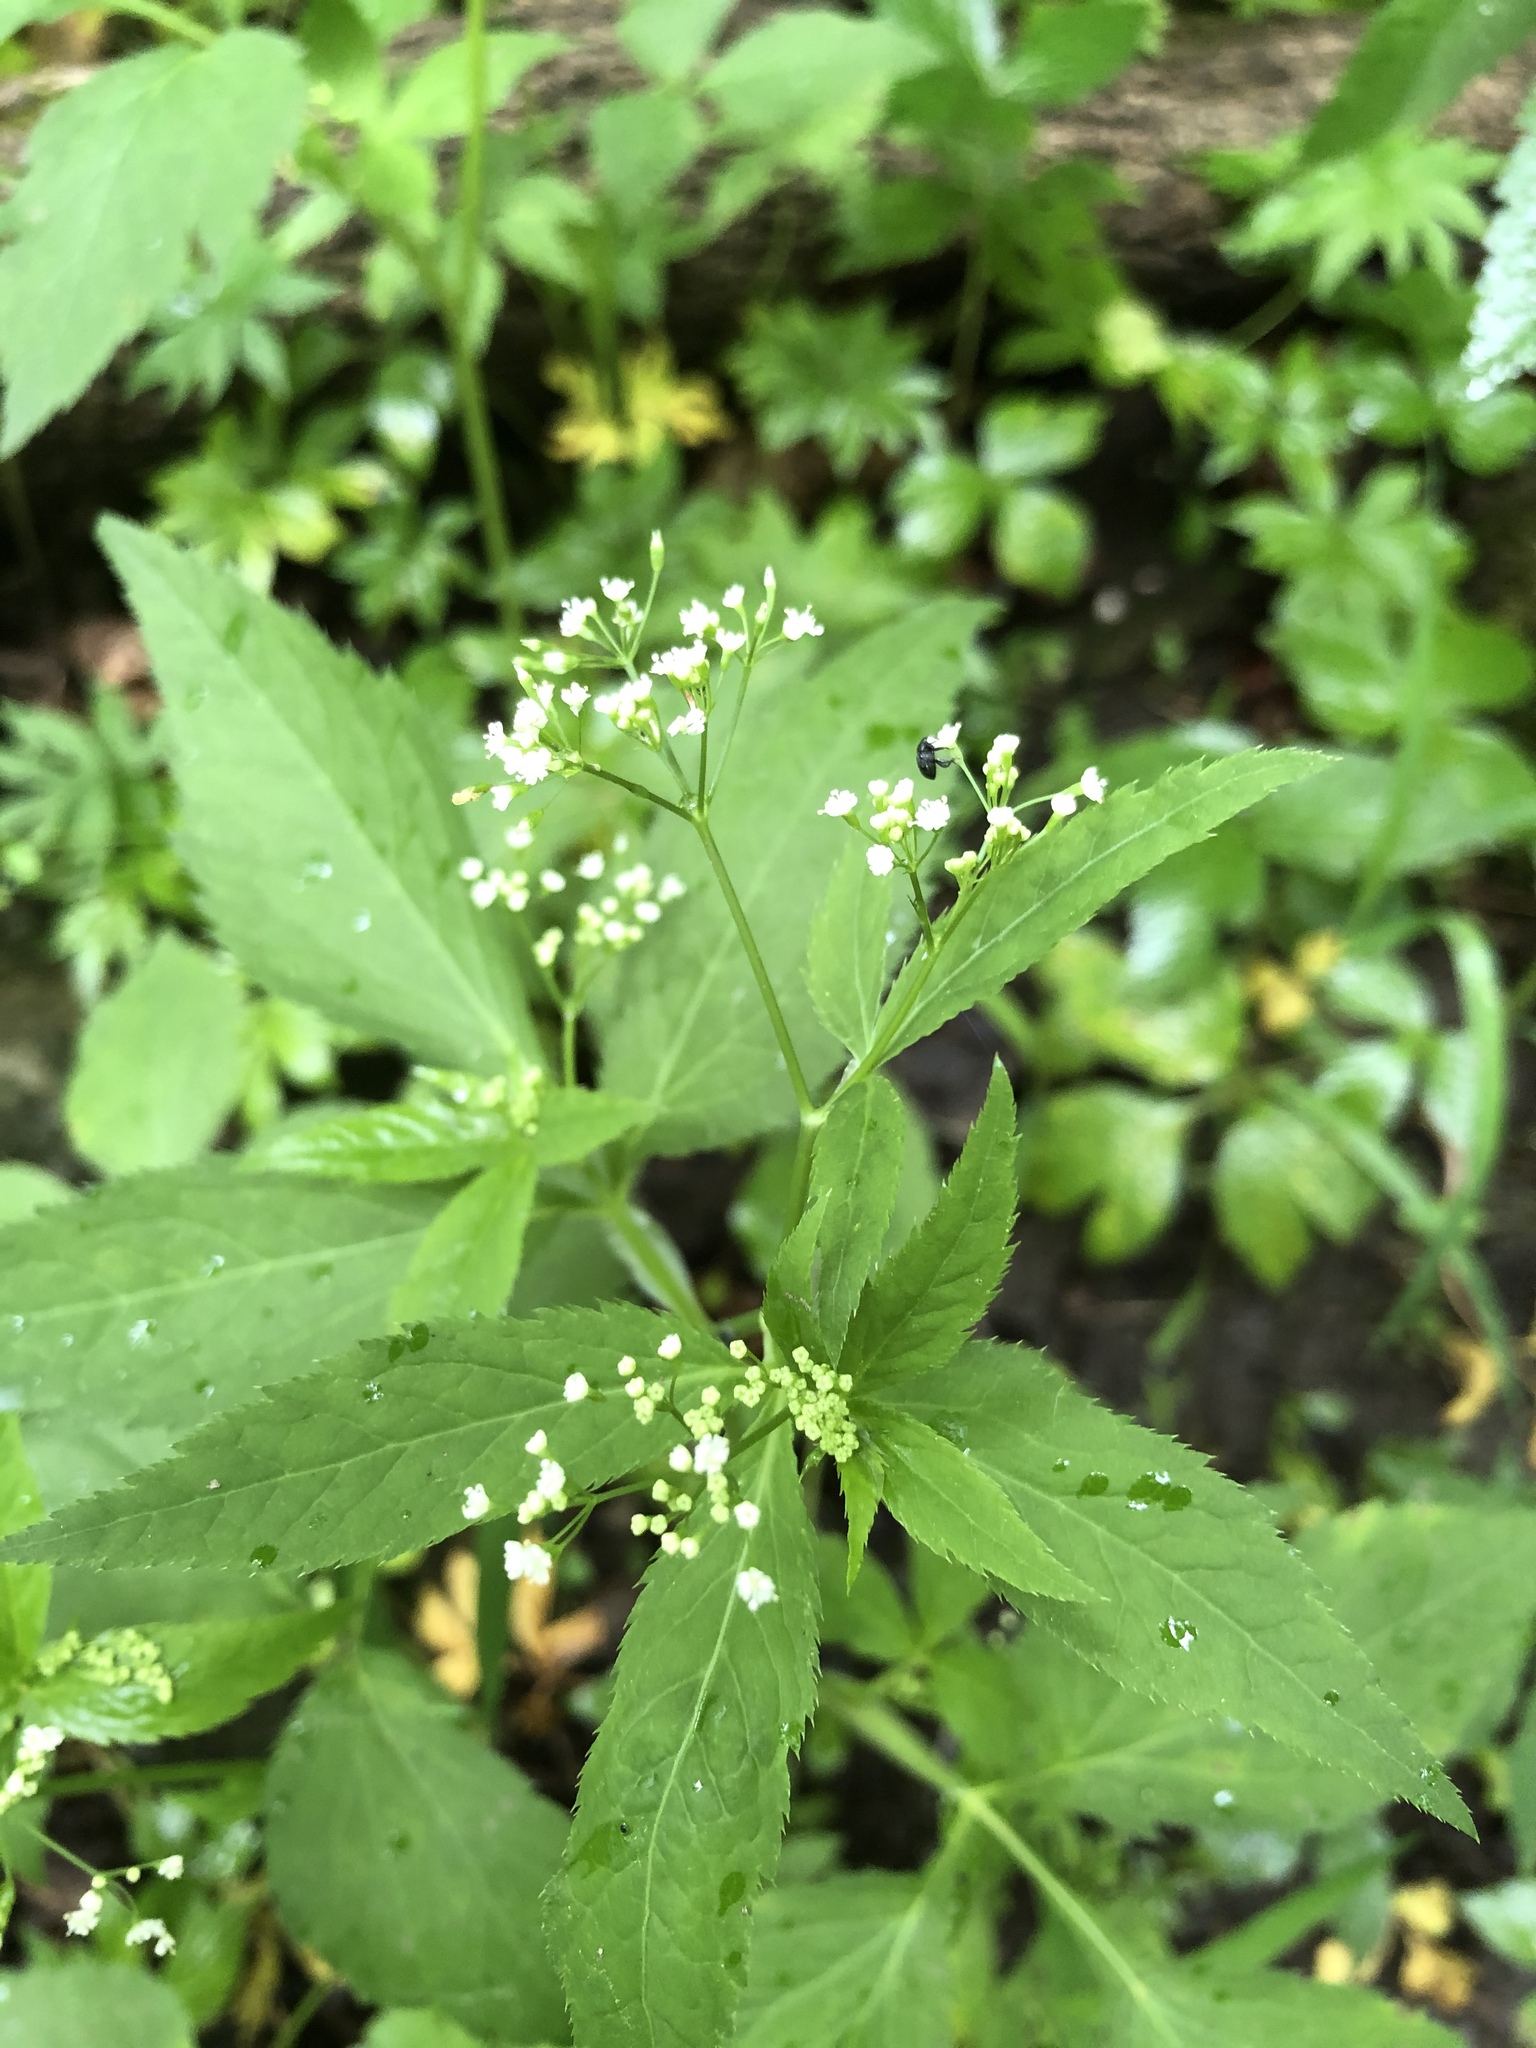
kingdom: Plantae
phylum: Tracheophyta
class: Magnoliopsida
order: Apiales
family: Apiaceae
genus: Cryptotaenia
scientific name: Cryptotaenia canadensis
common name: Honewort
